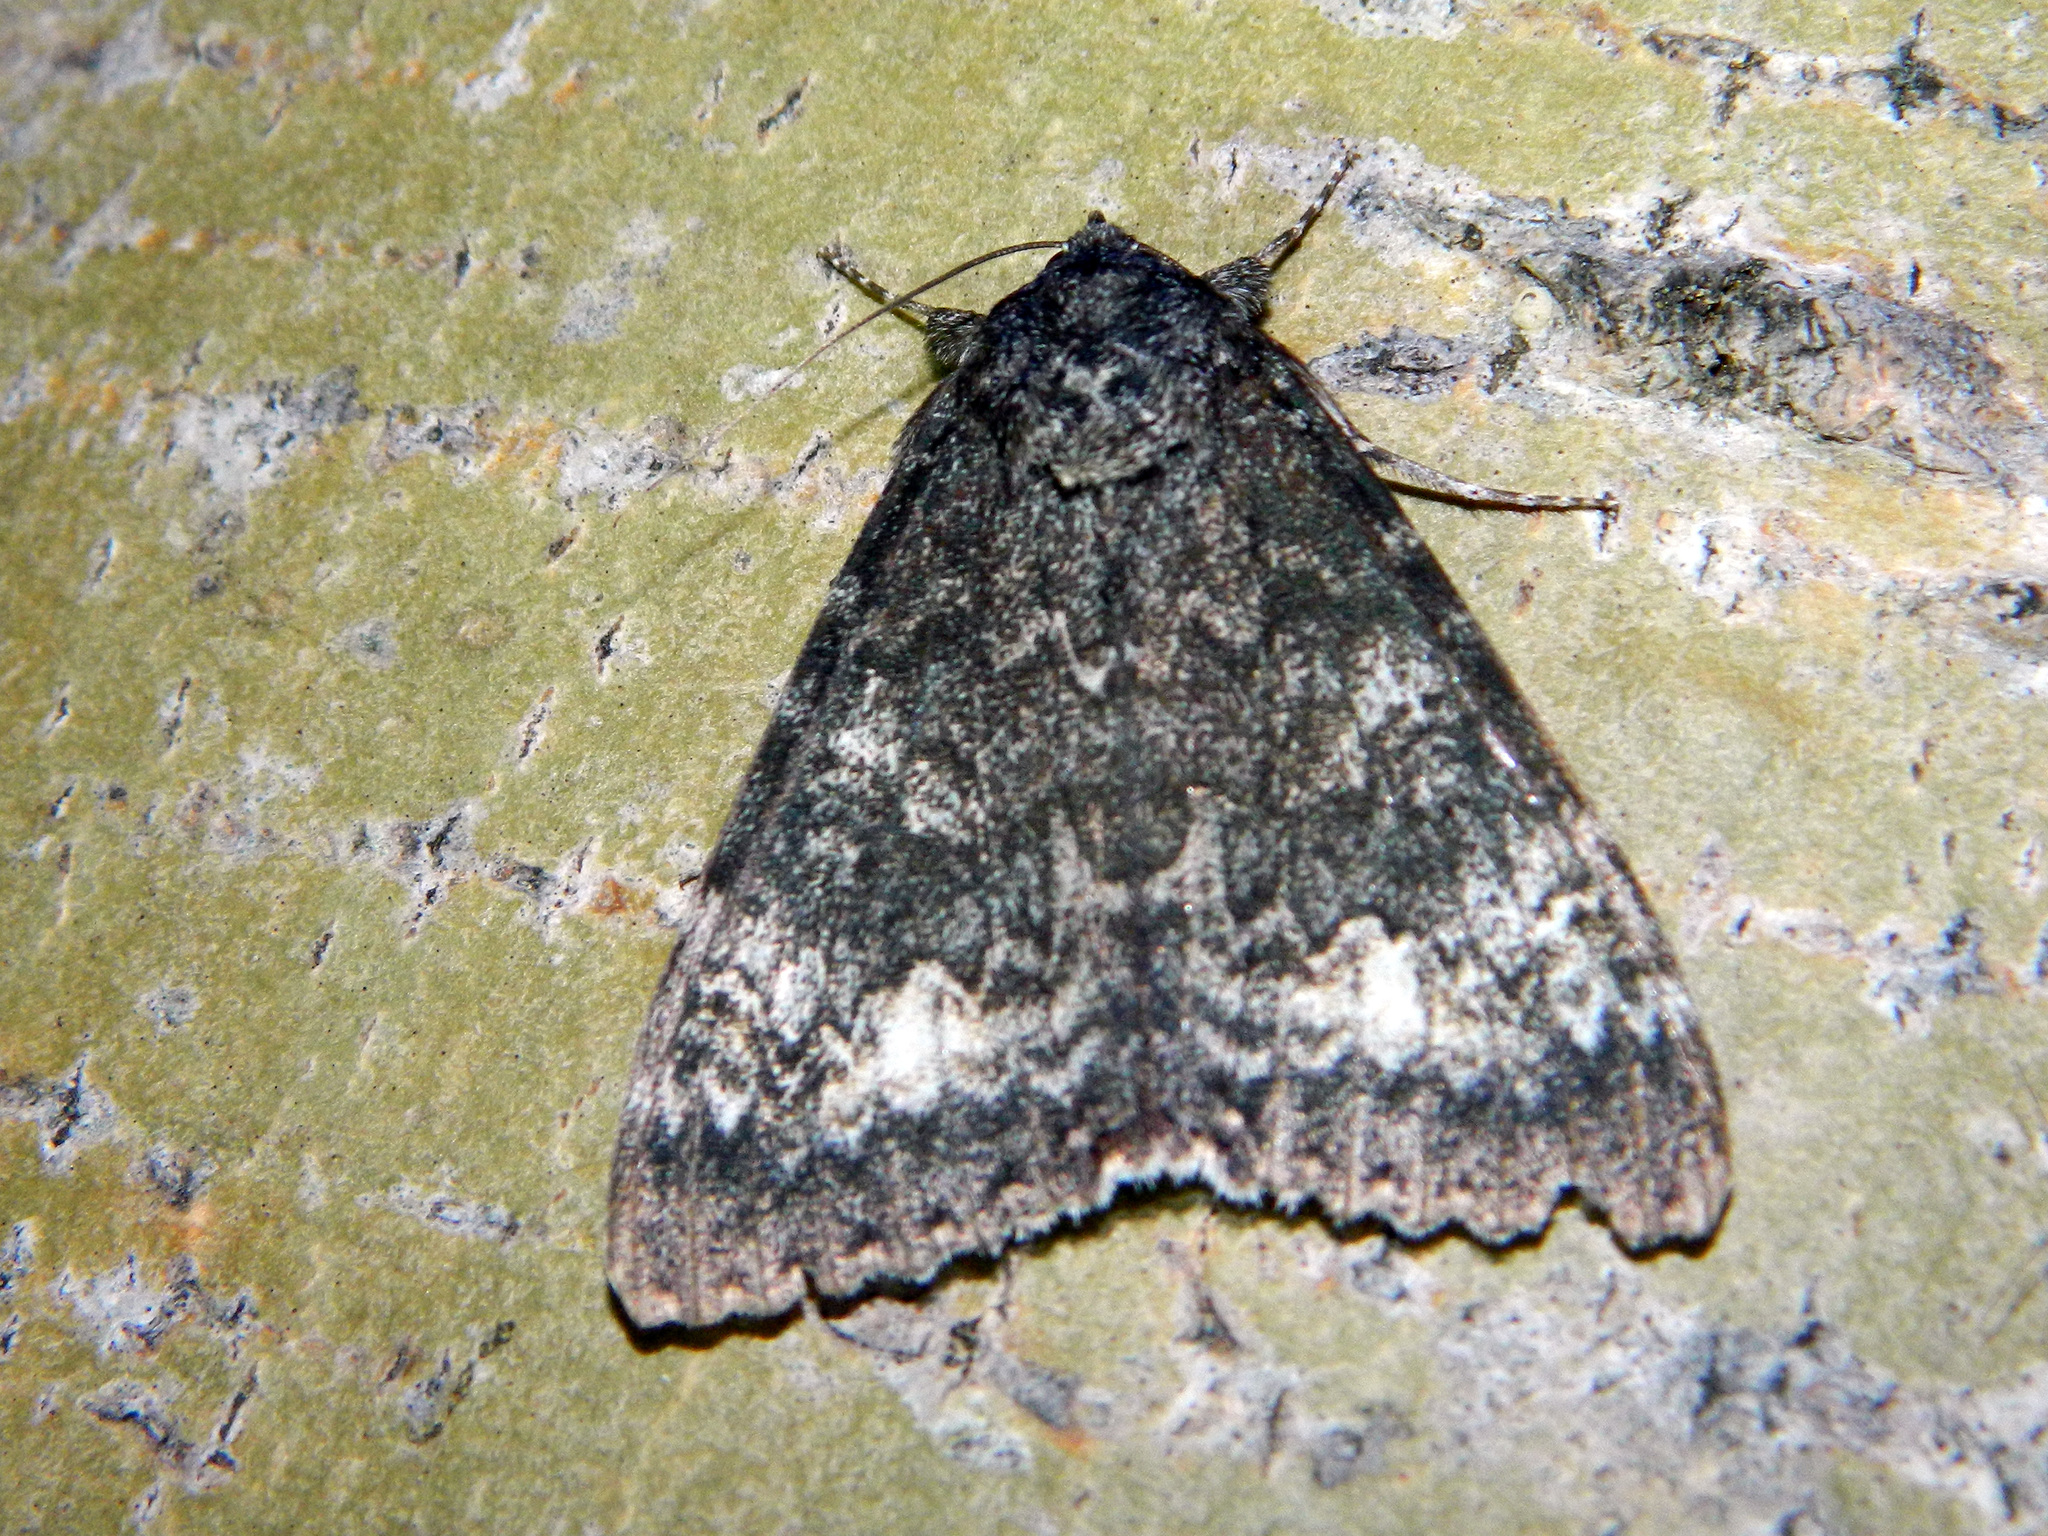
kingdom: Animalia
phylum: Arthropoda
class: Insecta
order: Lepidoptera
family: Erebidae
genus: Catocala
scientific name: Catocala briseis
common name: Briseis underwing
